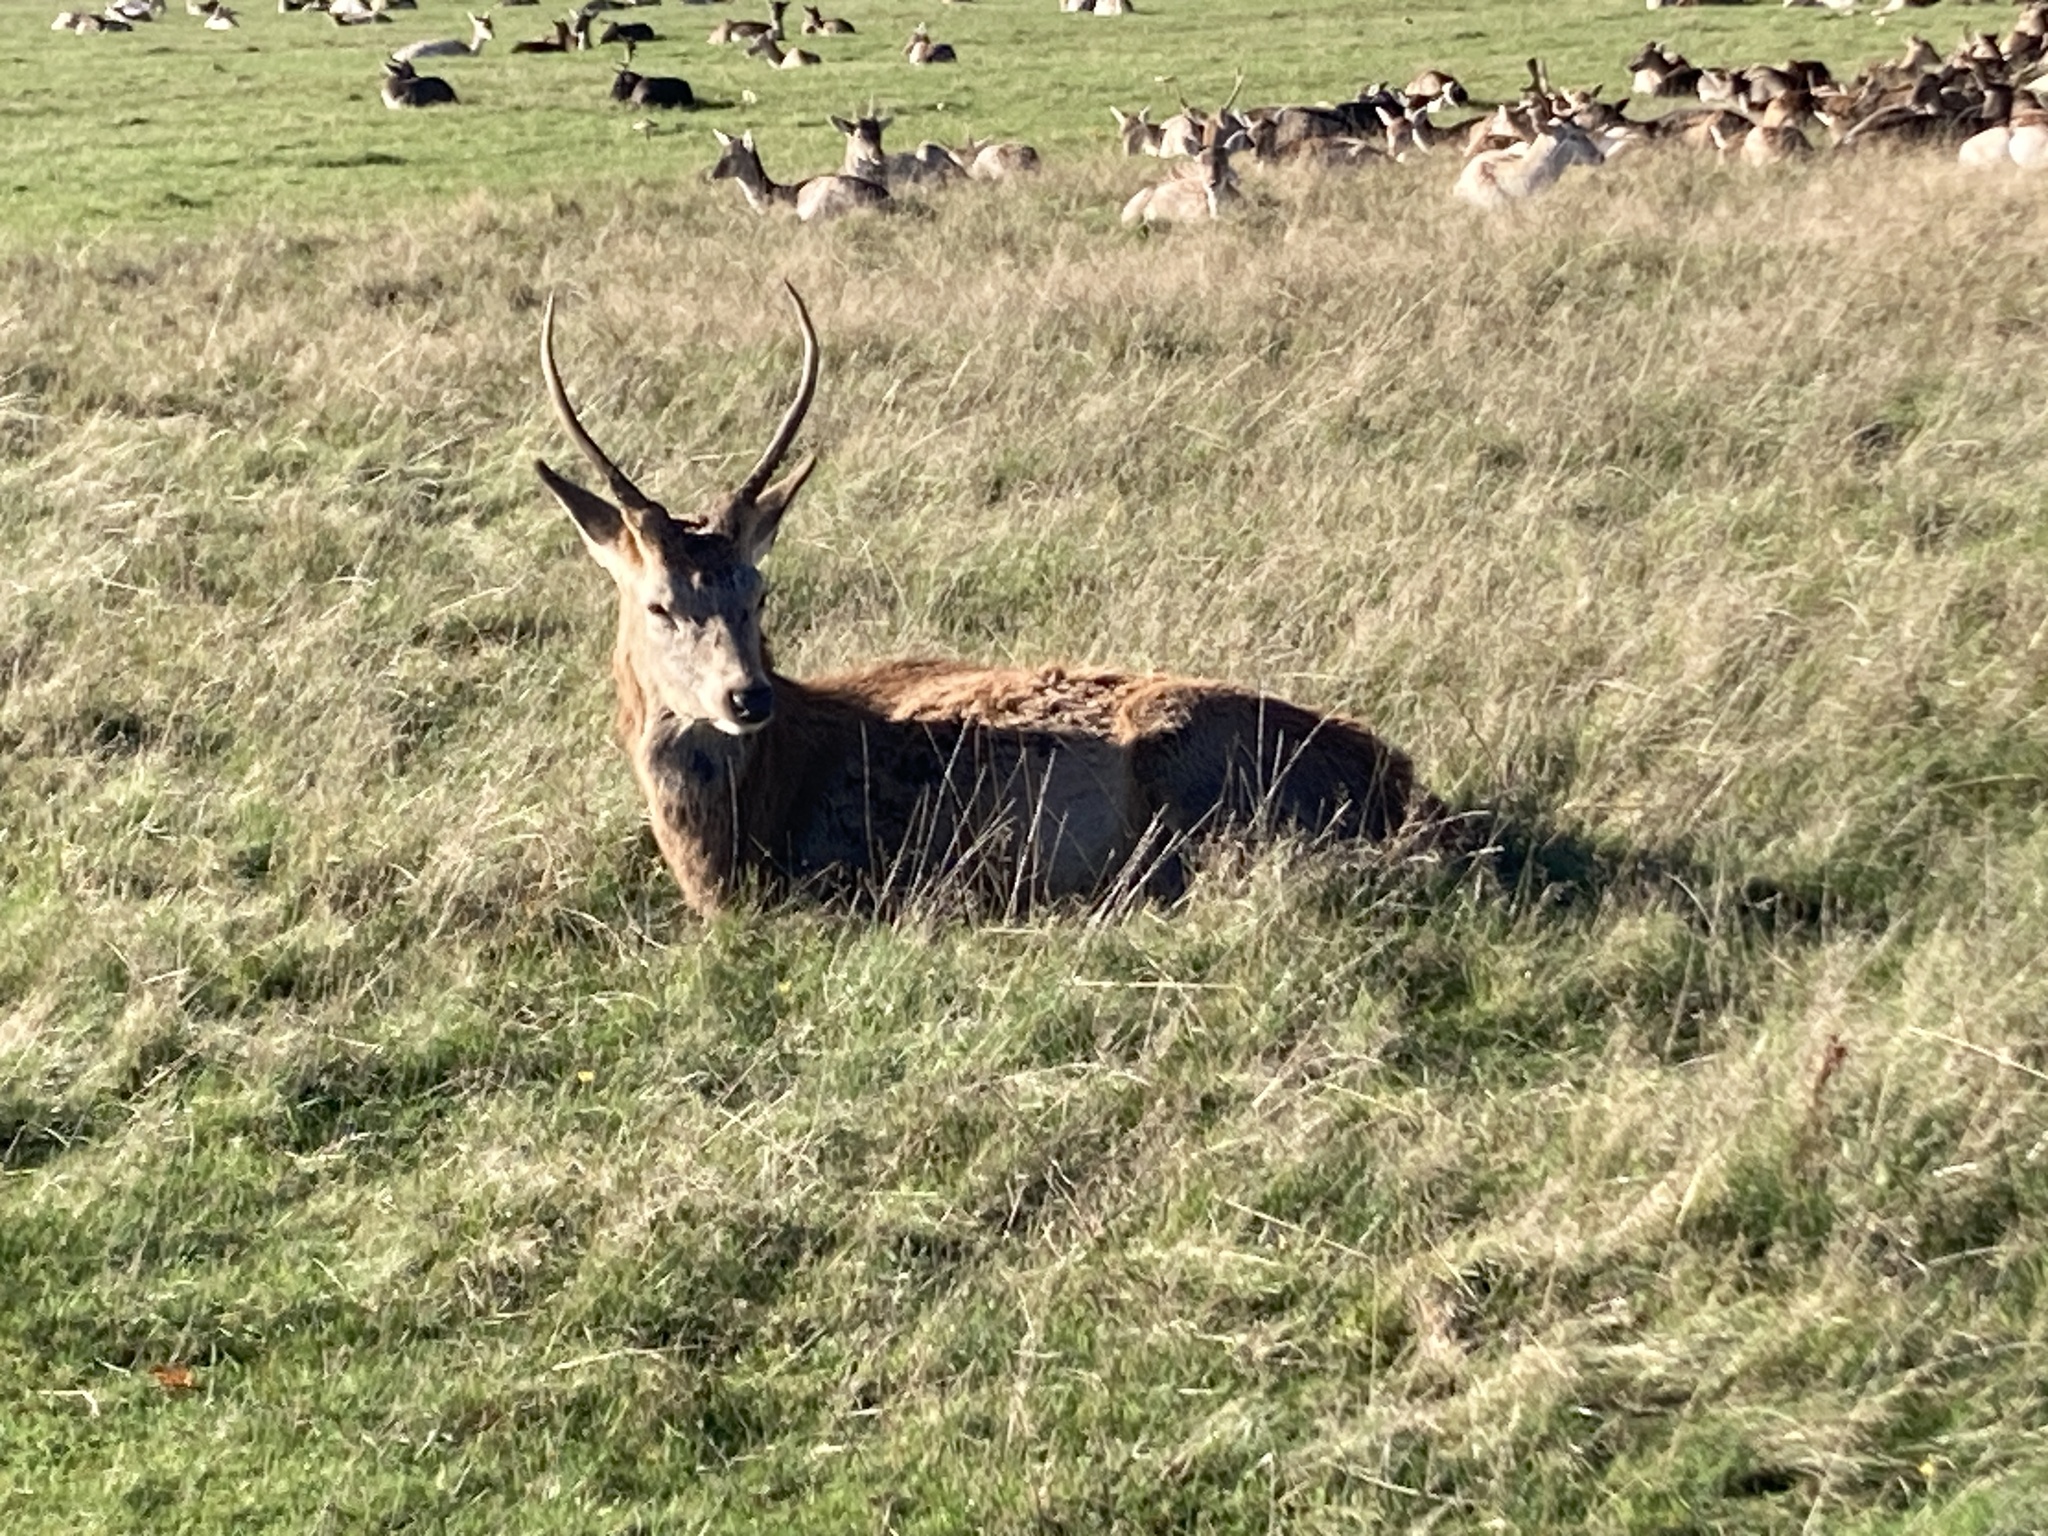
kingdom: Animalia
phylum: Chordata
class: Mammalia
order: Artiodactyla
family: Cervidae
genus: Cervus
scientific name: Cervus elaphus
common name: Red deer
